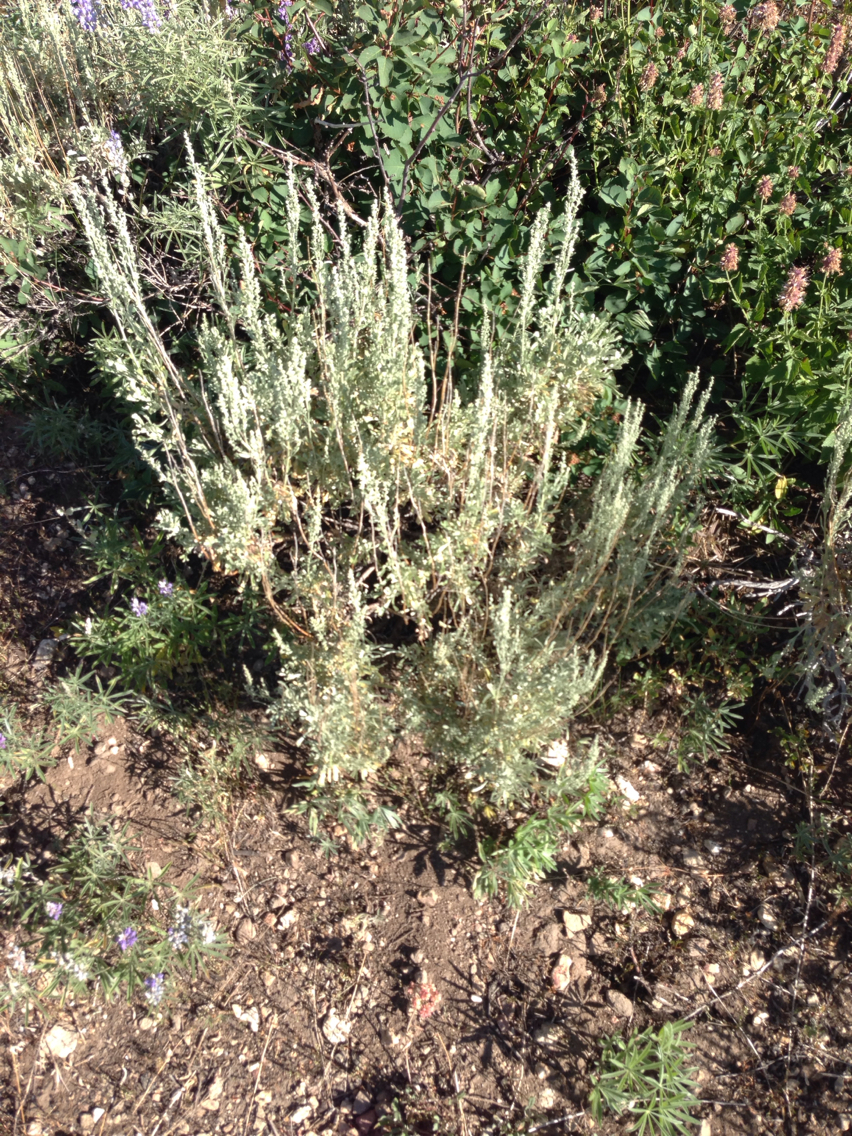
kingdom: Plantae
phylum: Tracheophyta
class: Magnoliopsida
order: Asterales
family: Asteraceae
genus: Artemisia
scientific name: Artemisia tridentata
